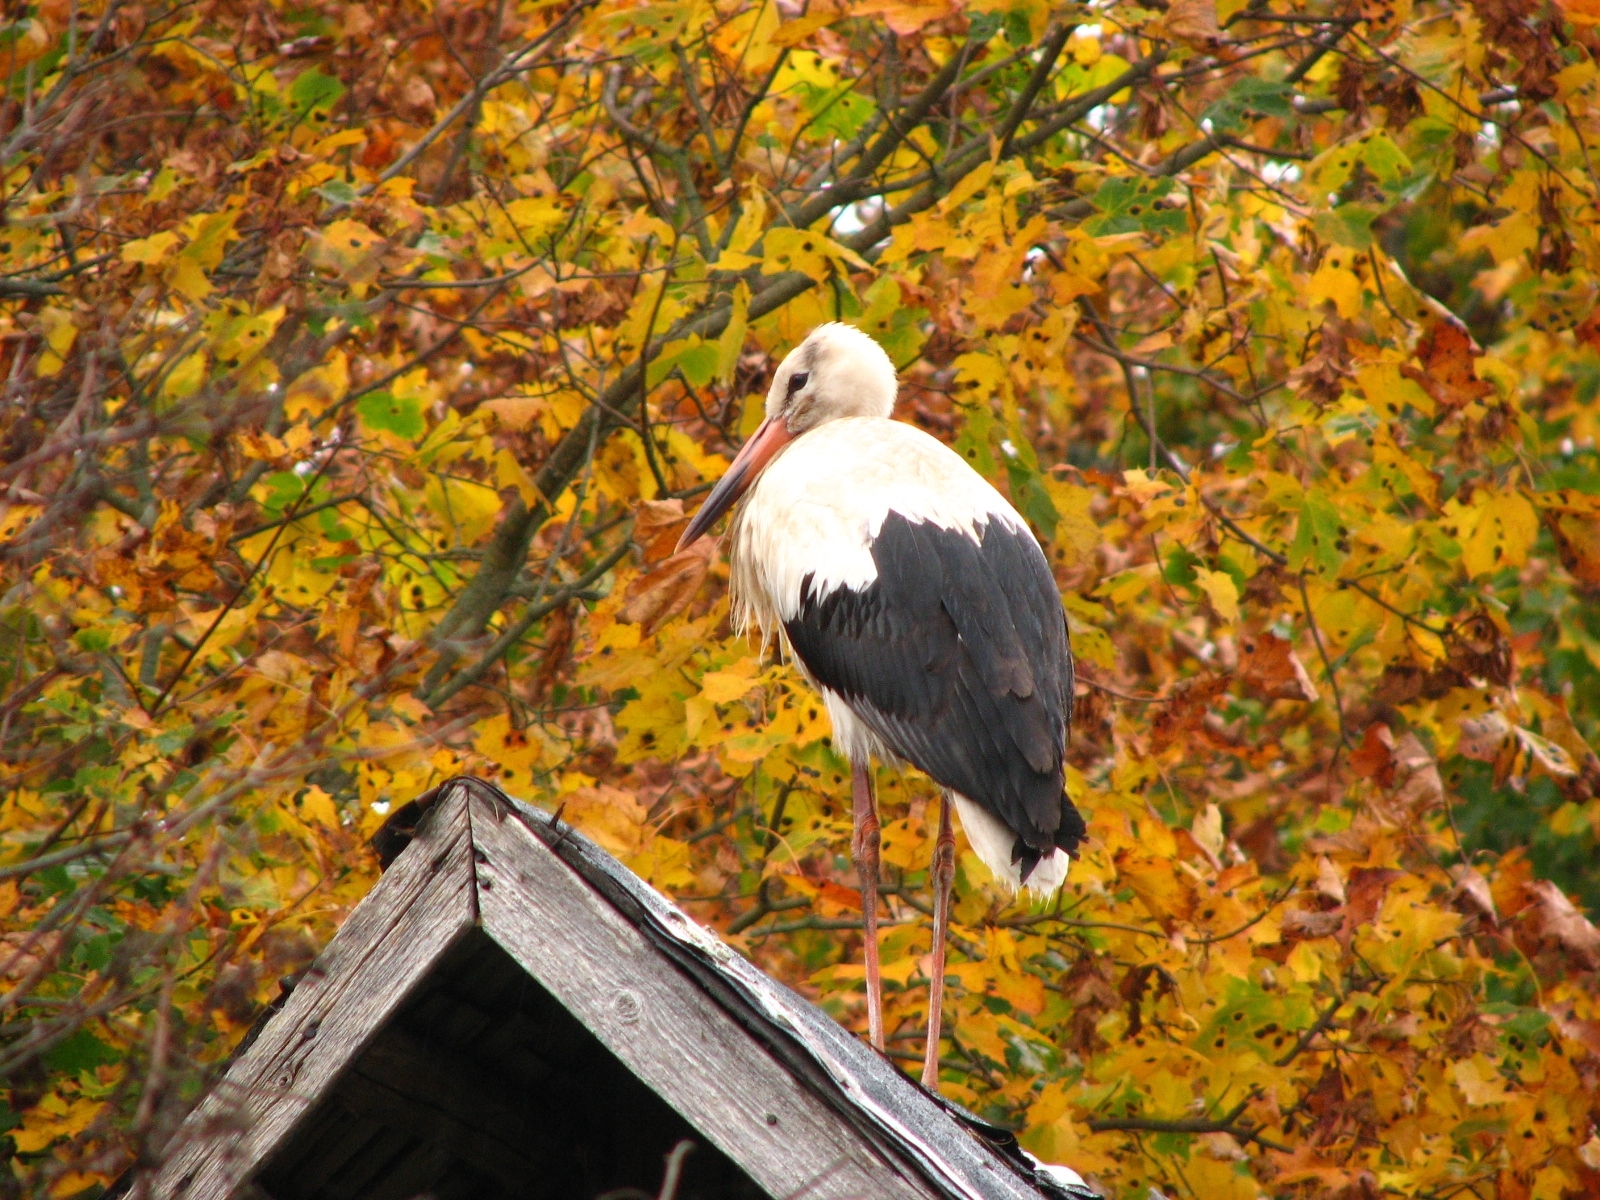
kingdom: Animalia
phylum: Chordata
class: Aves
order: Ciconiiformes
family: Ciconiidae
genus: Ciconia
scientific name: Ciconia ciconia
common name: White stork
